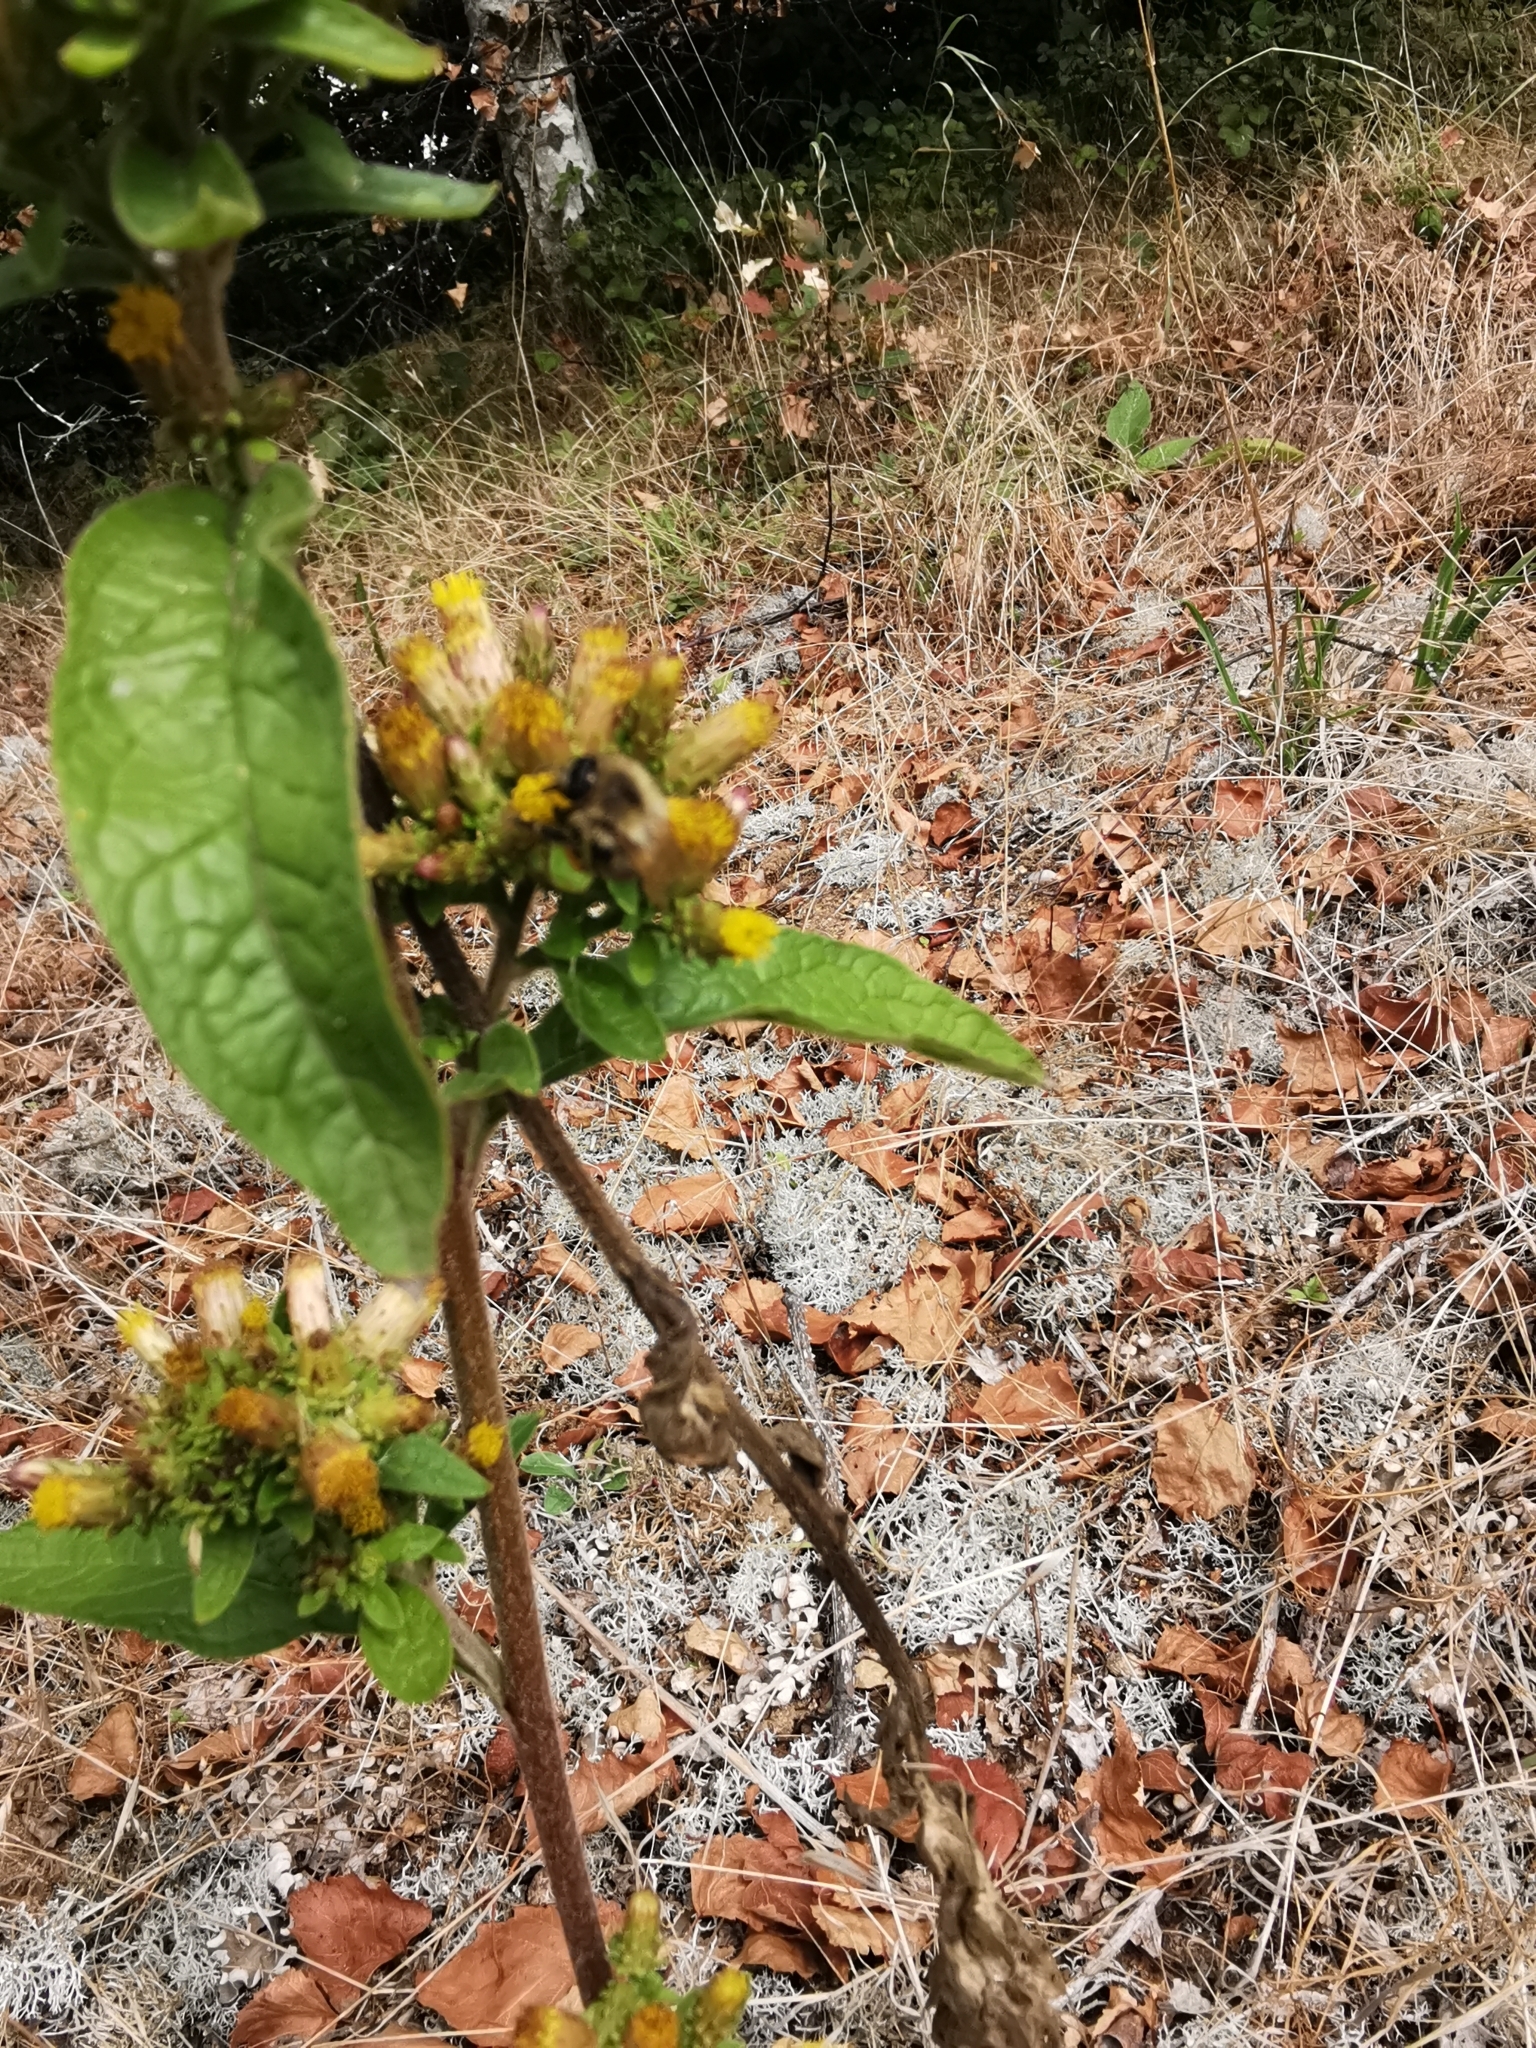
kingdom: Plantae
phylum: Tracheophyta
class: Magnoliopsida
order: Asterales
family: Asteraceae
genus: Pentanema
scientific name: Pentanema squarrosum
